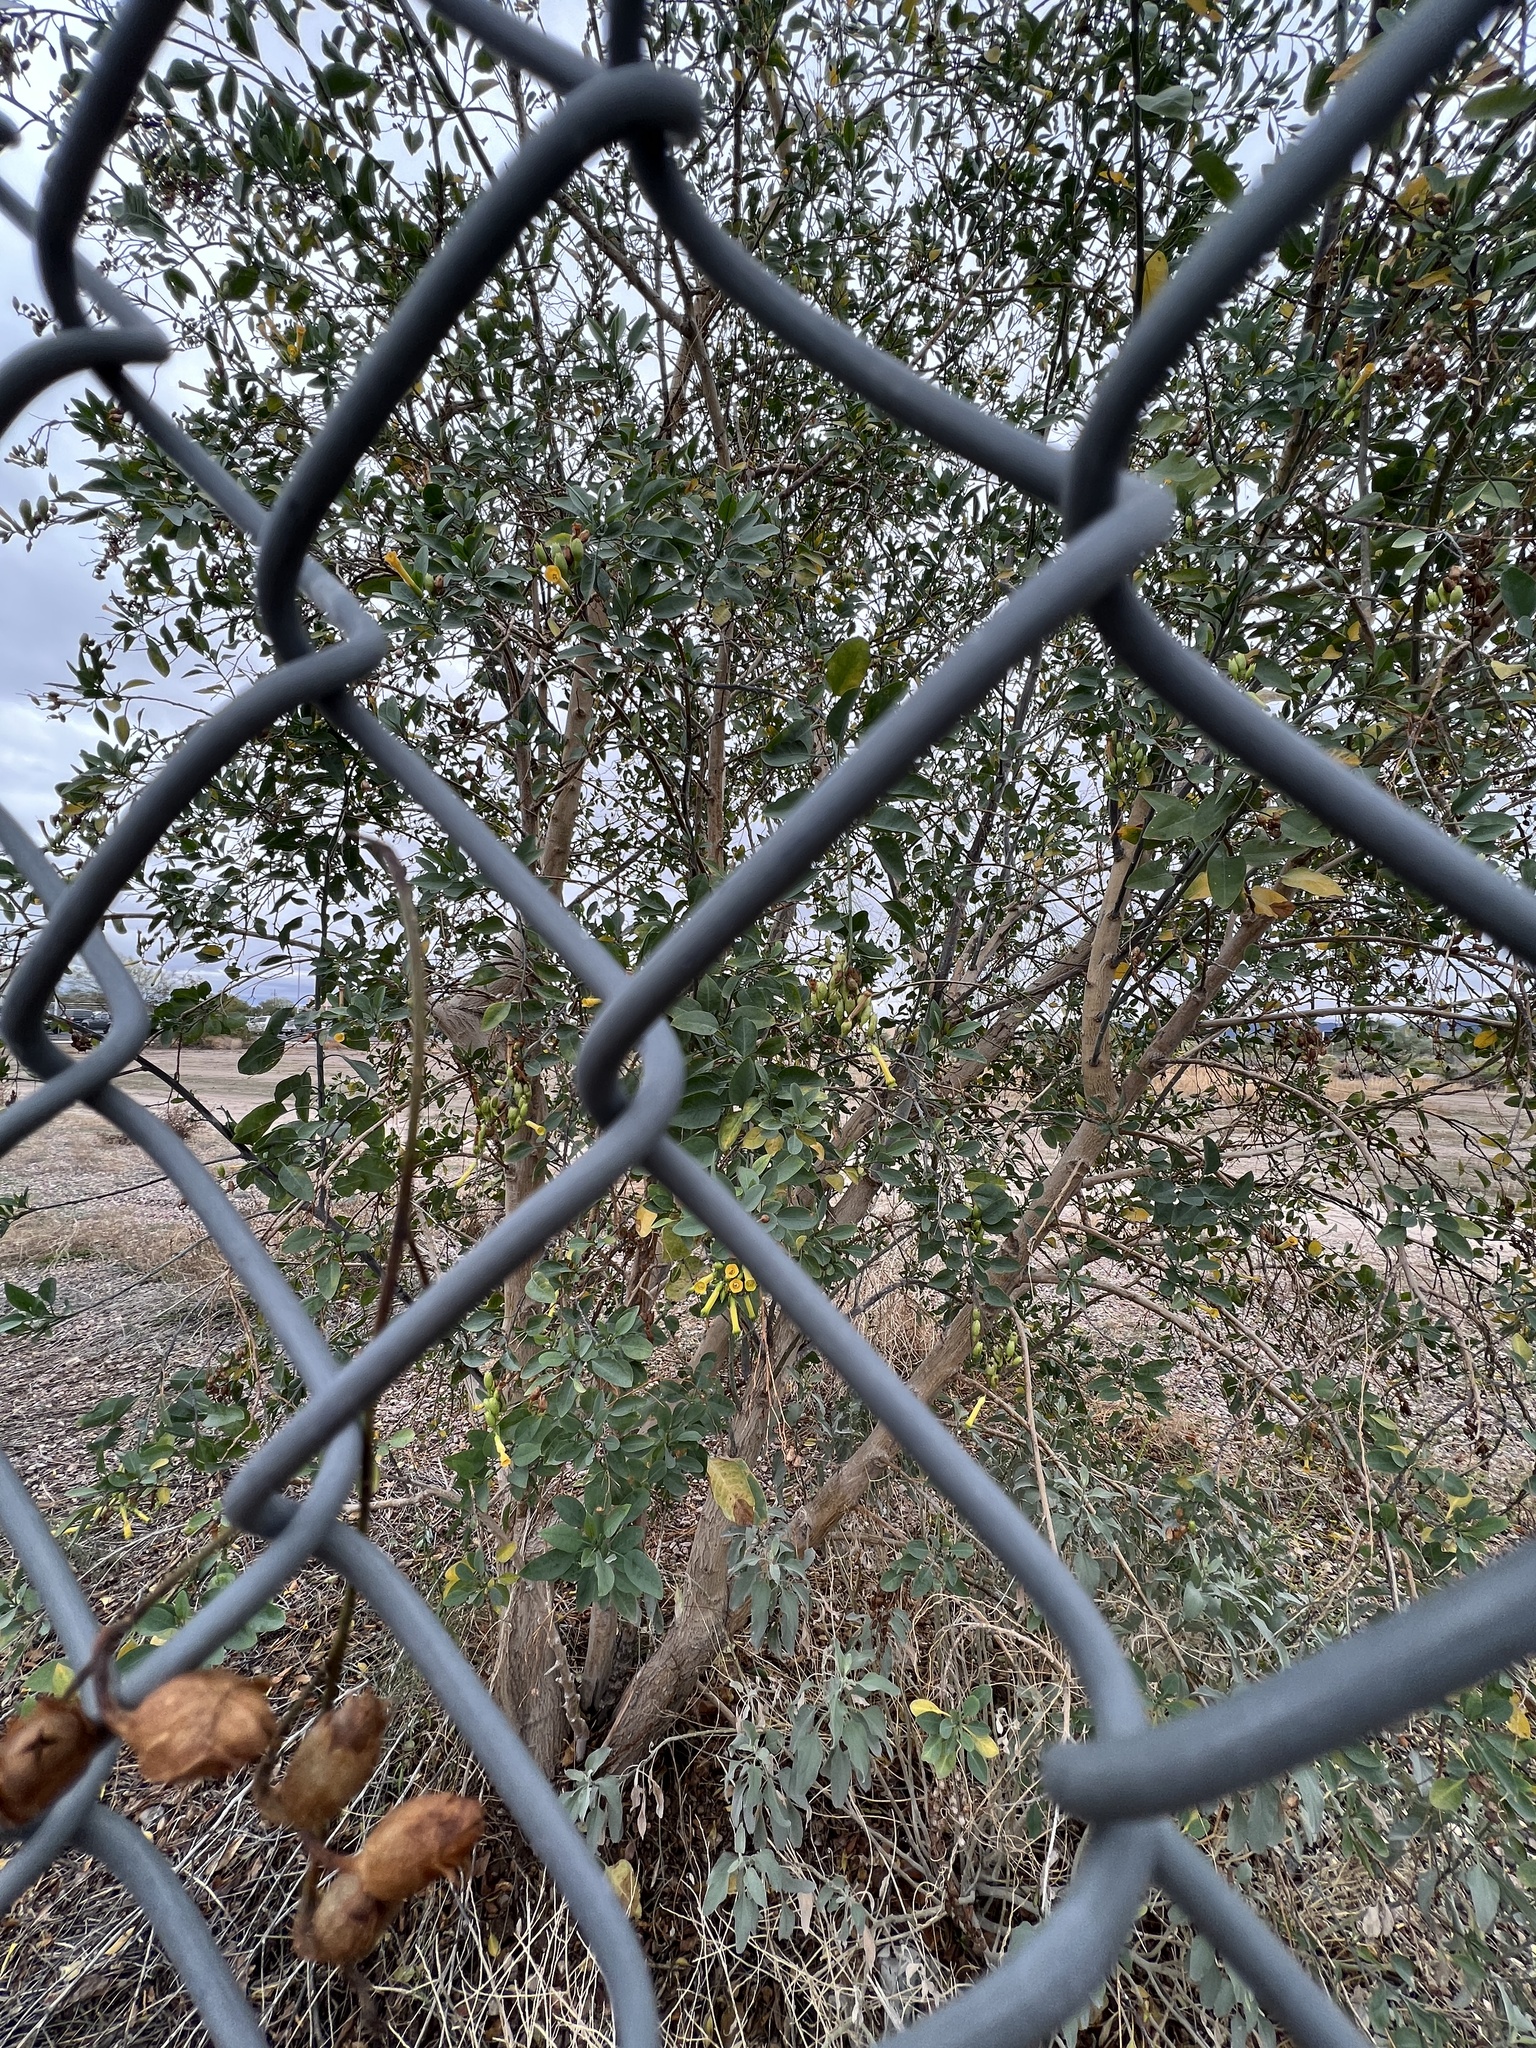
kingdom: Plantae
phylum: Tracheophyta
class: Magnoliopsida
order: Solanales
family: Solanaceae
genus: Nicotiana
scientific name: Nicotiana glauca
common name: Tree tobacco
